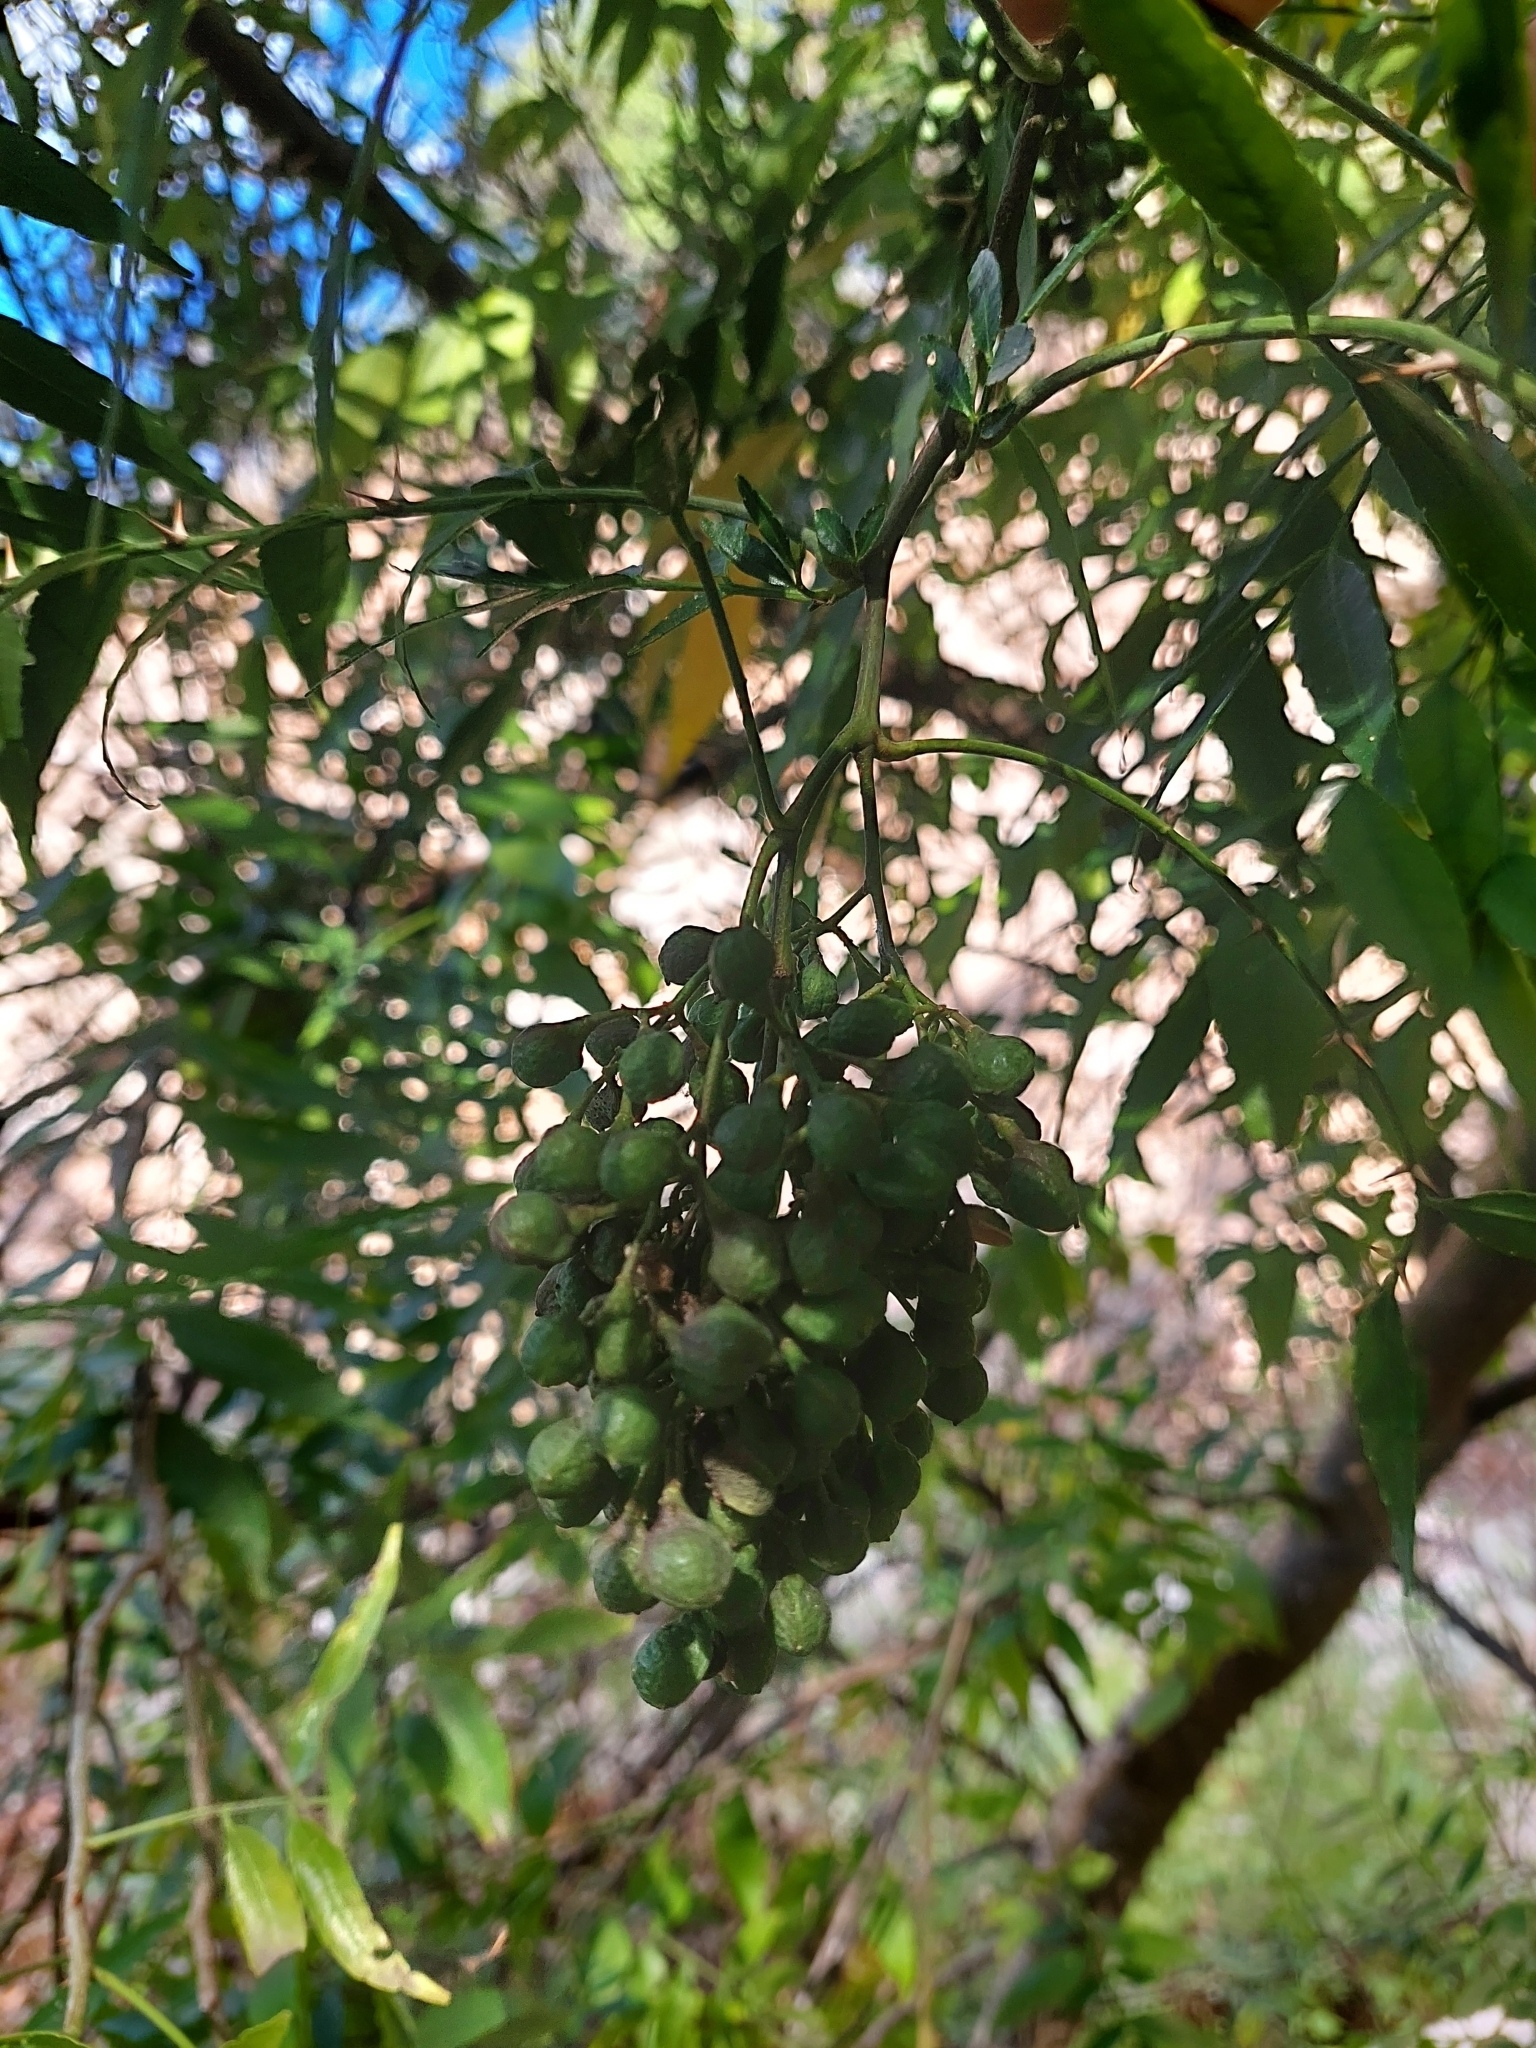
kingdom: Plantae
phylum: Tracheophyta
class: Magnoliopsida
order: Sapindales
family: Rutaceae
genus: Zanthoxylum
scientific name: Zanthoxylum coco
